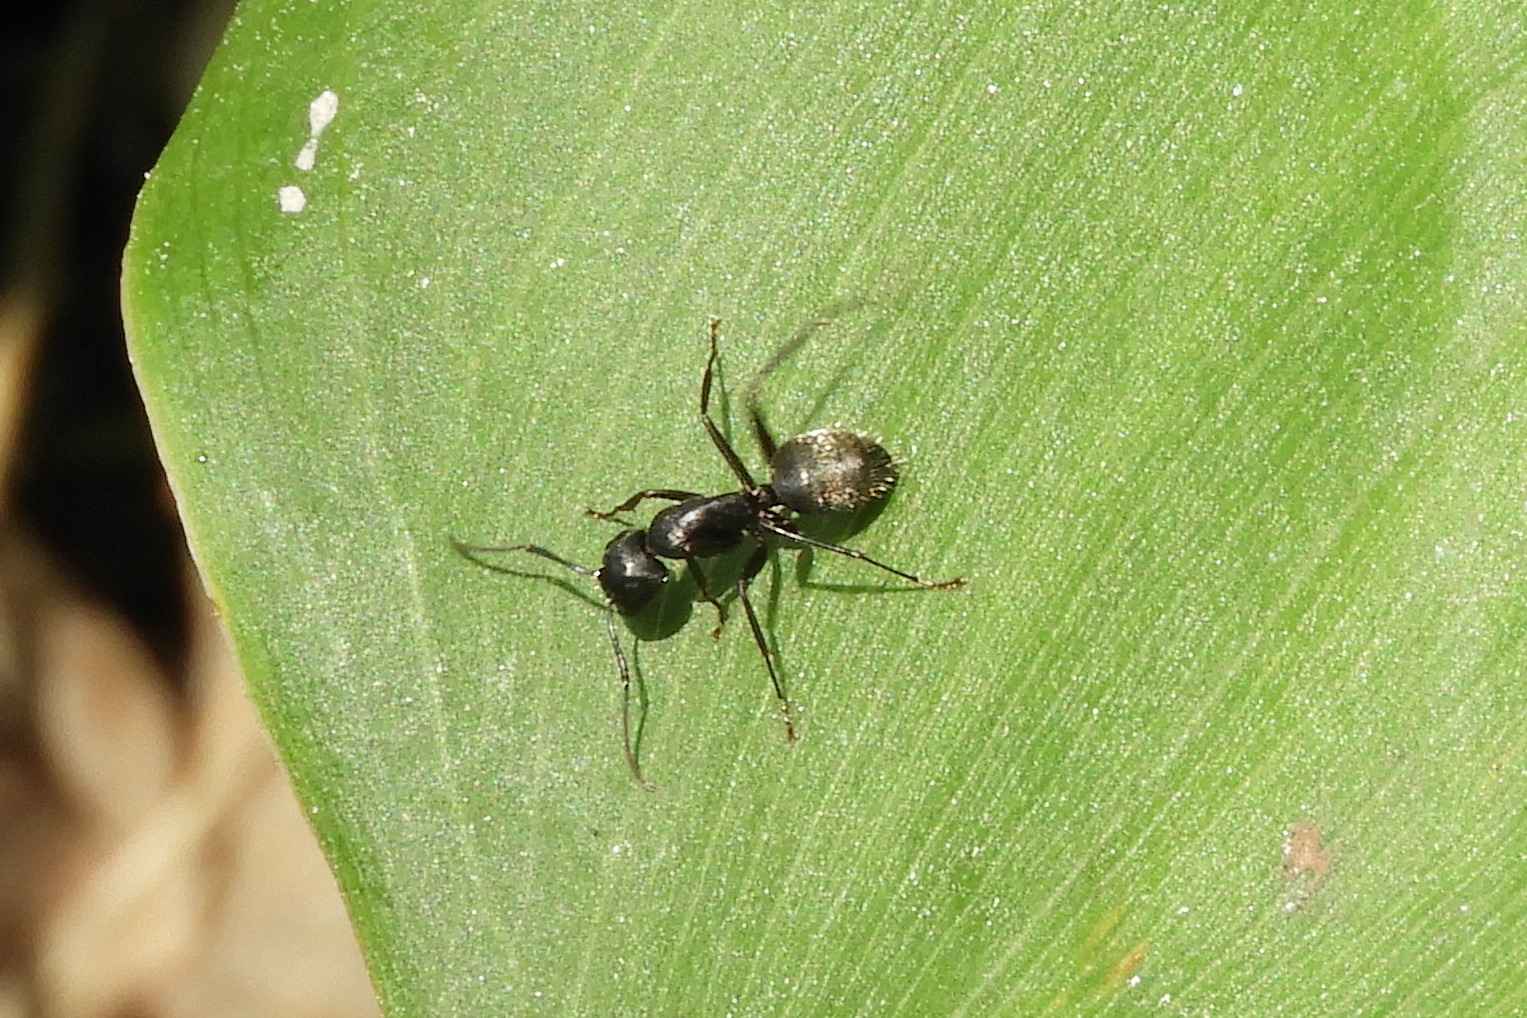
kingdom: Animalia
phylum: Arthropoda
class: Insecta
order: Hymenoptera
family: Formicidae
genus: Camponotus
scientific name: Camponotus pennsylvanicus
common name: Black carpenter ant
